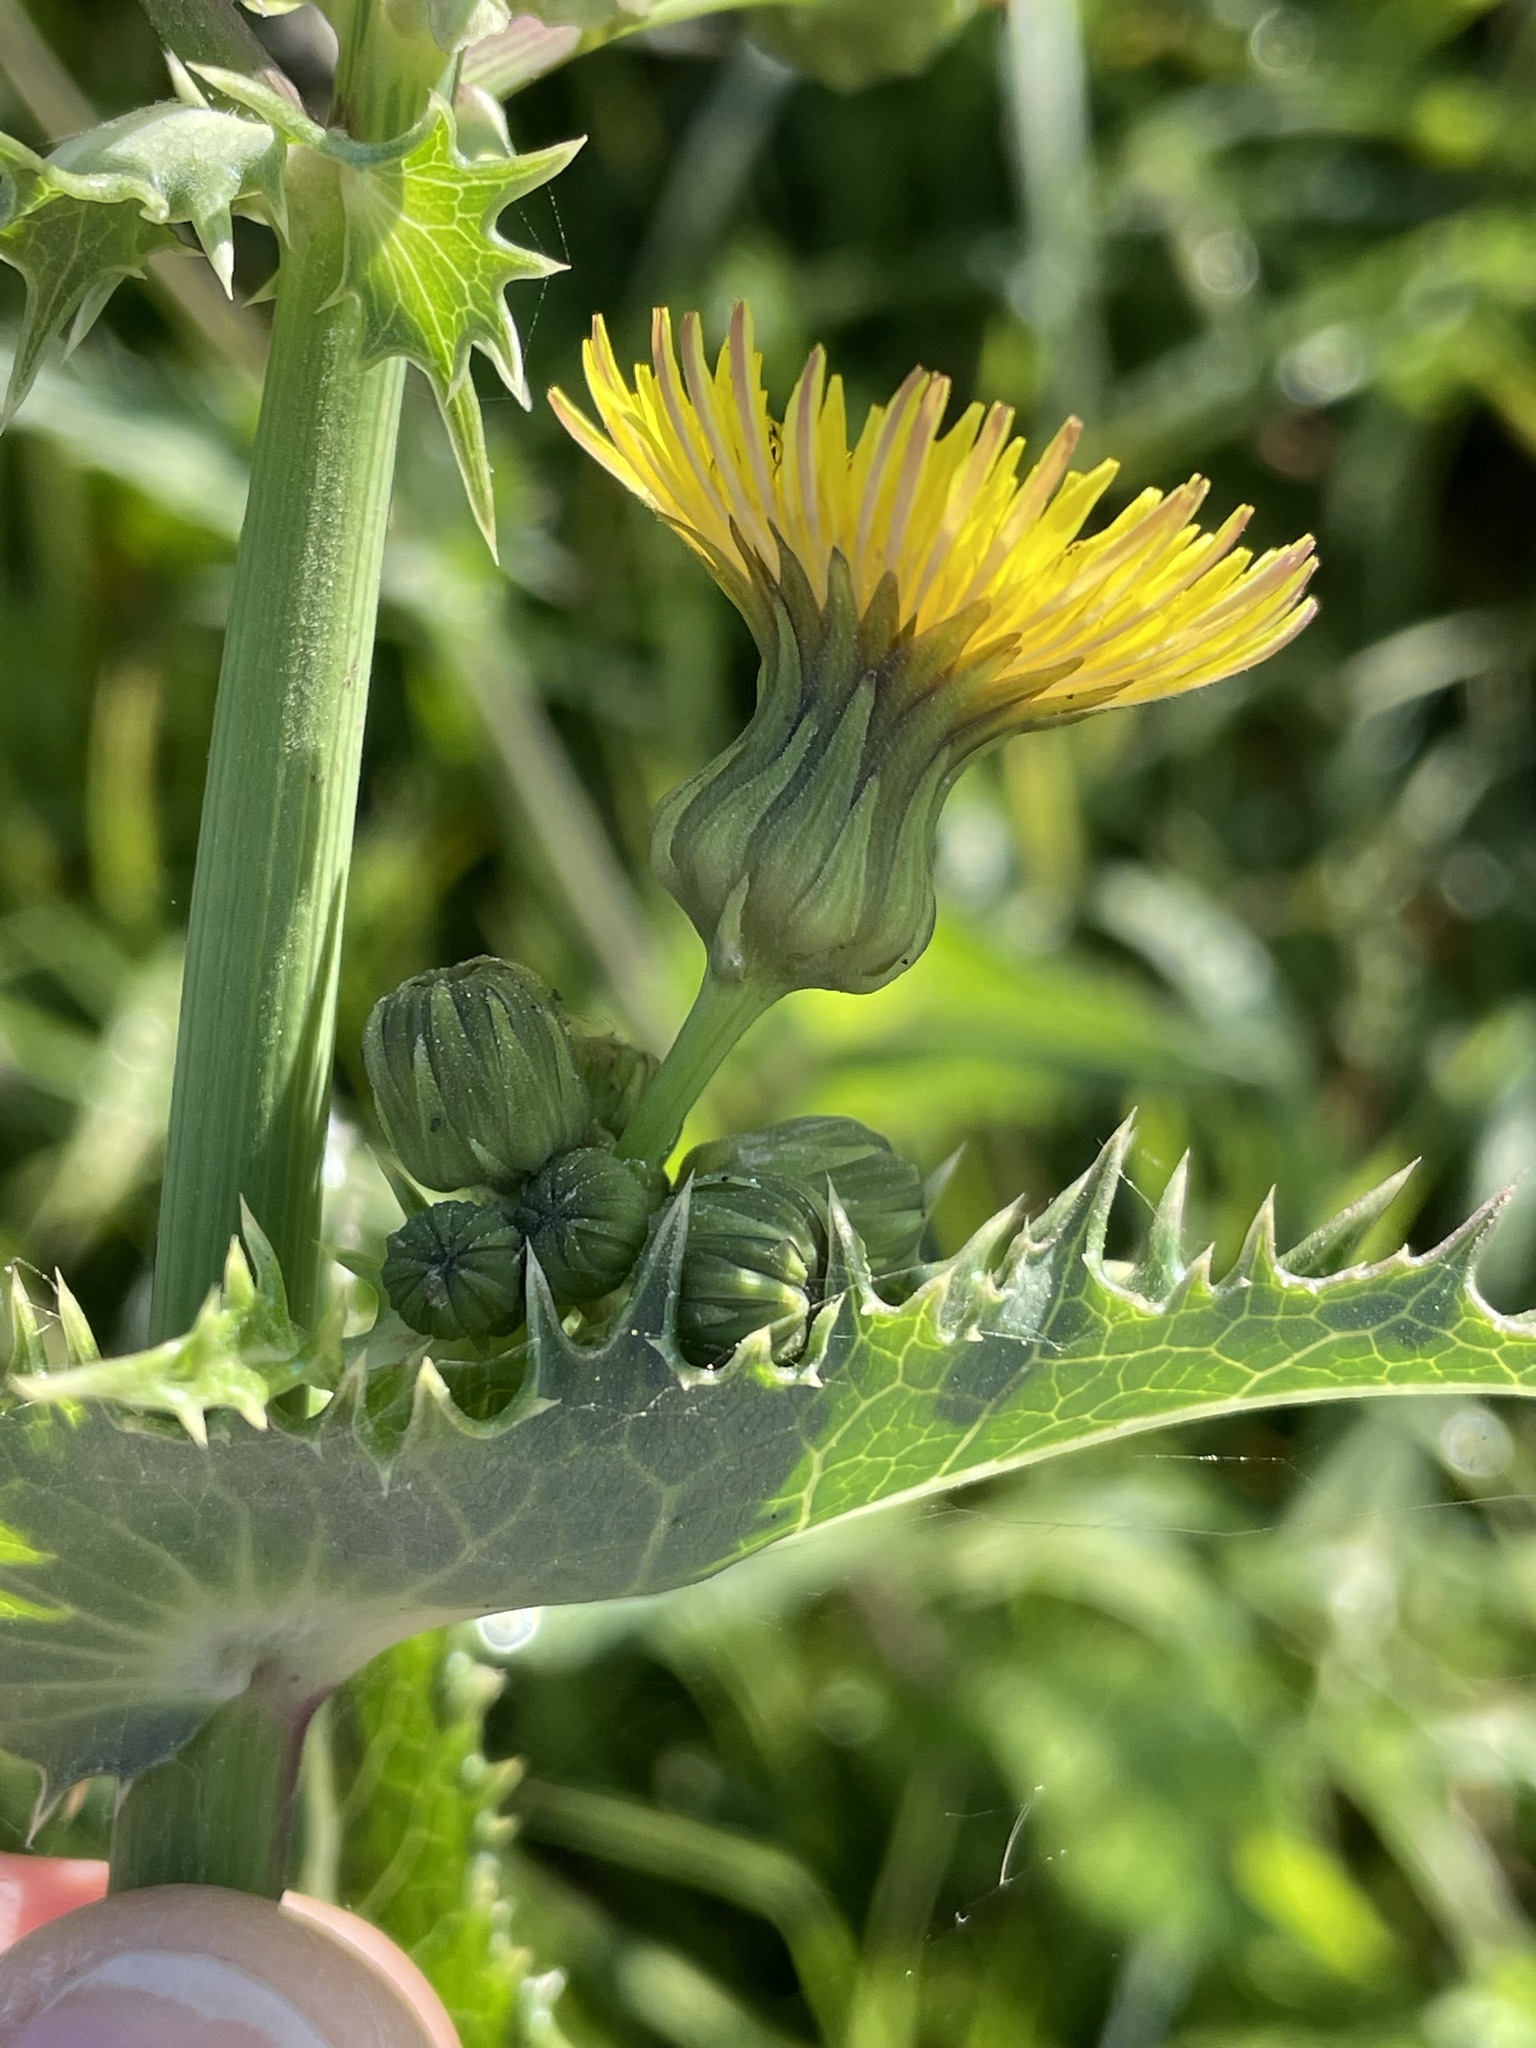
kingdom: Plantae
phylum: Tracheophyta
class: Magnoliopsida
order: Asterales
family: Asteraceae
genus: Sonchus
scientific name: Sonchus asper
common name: Prickly sow-thistle
